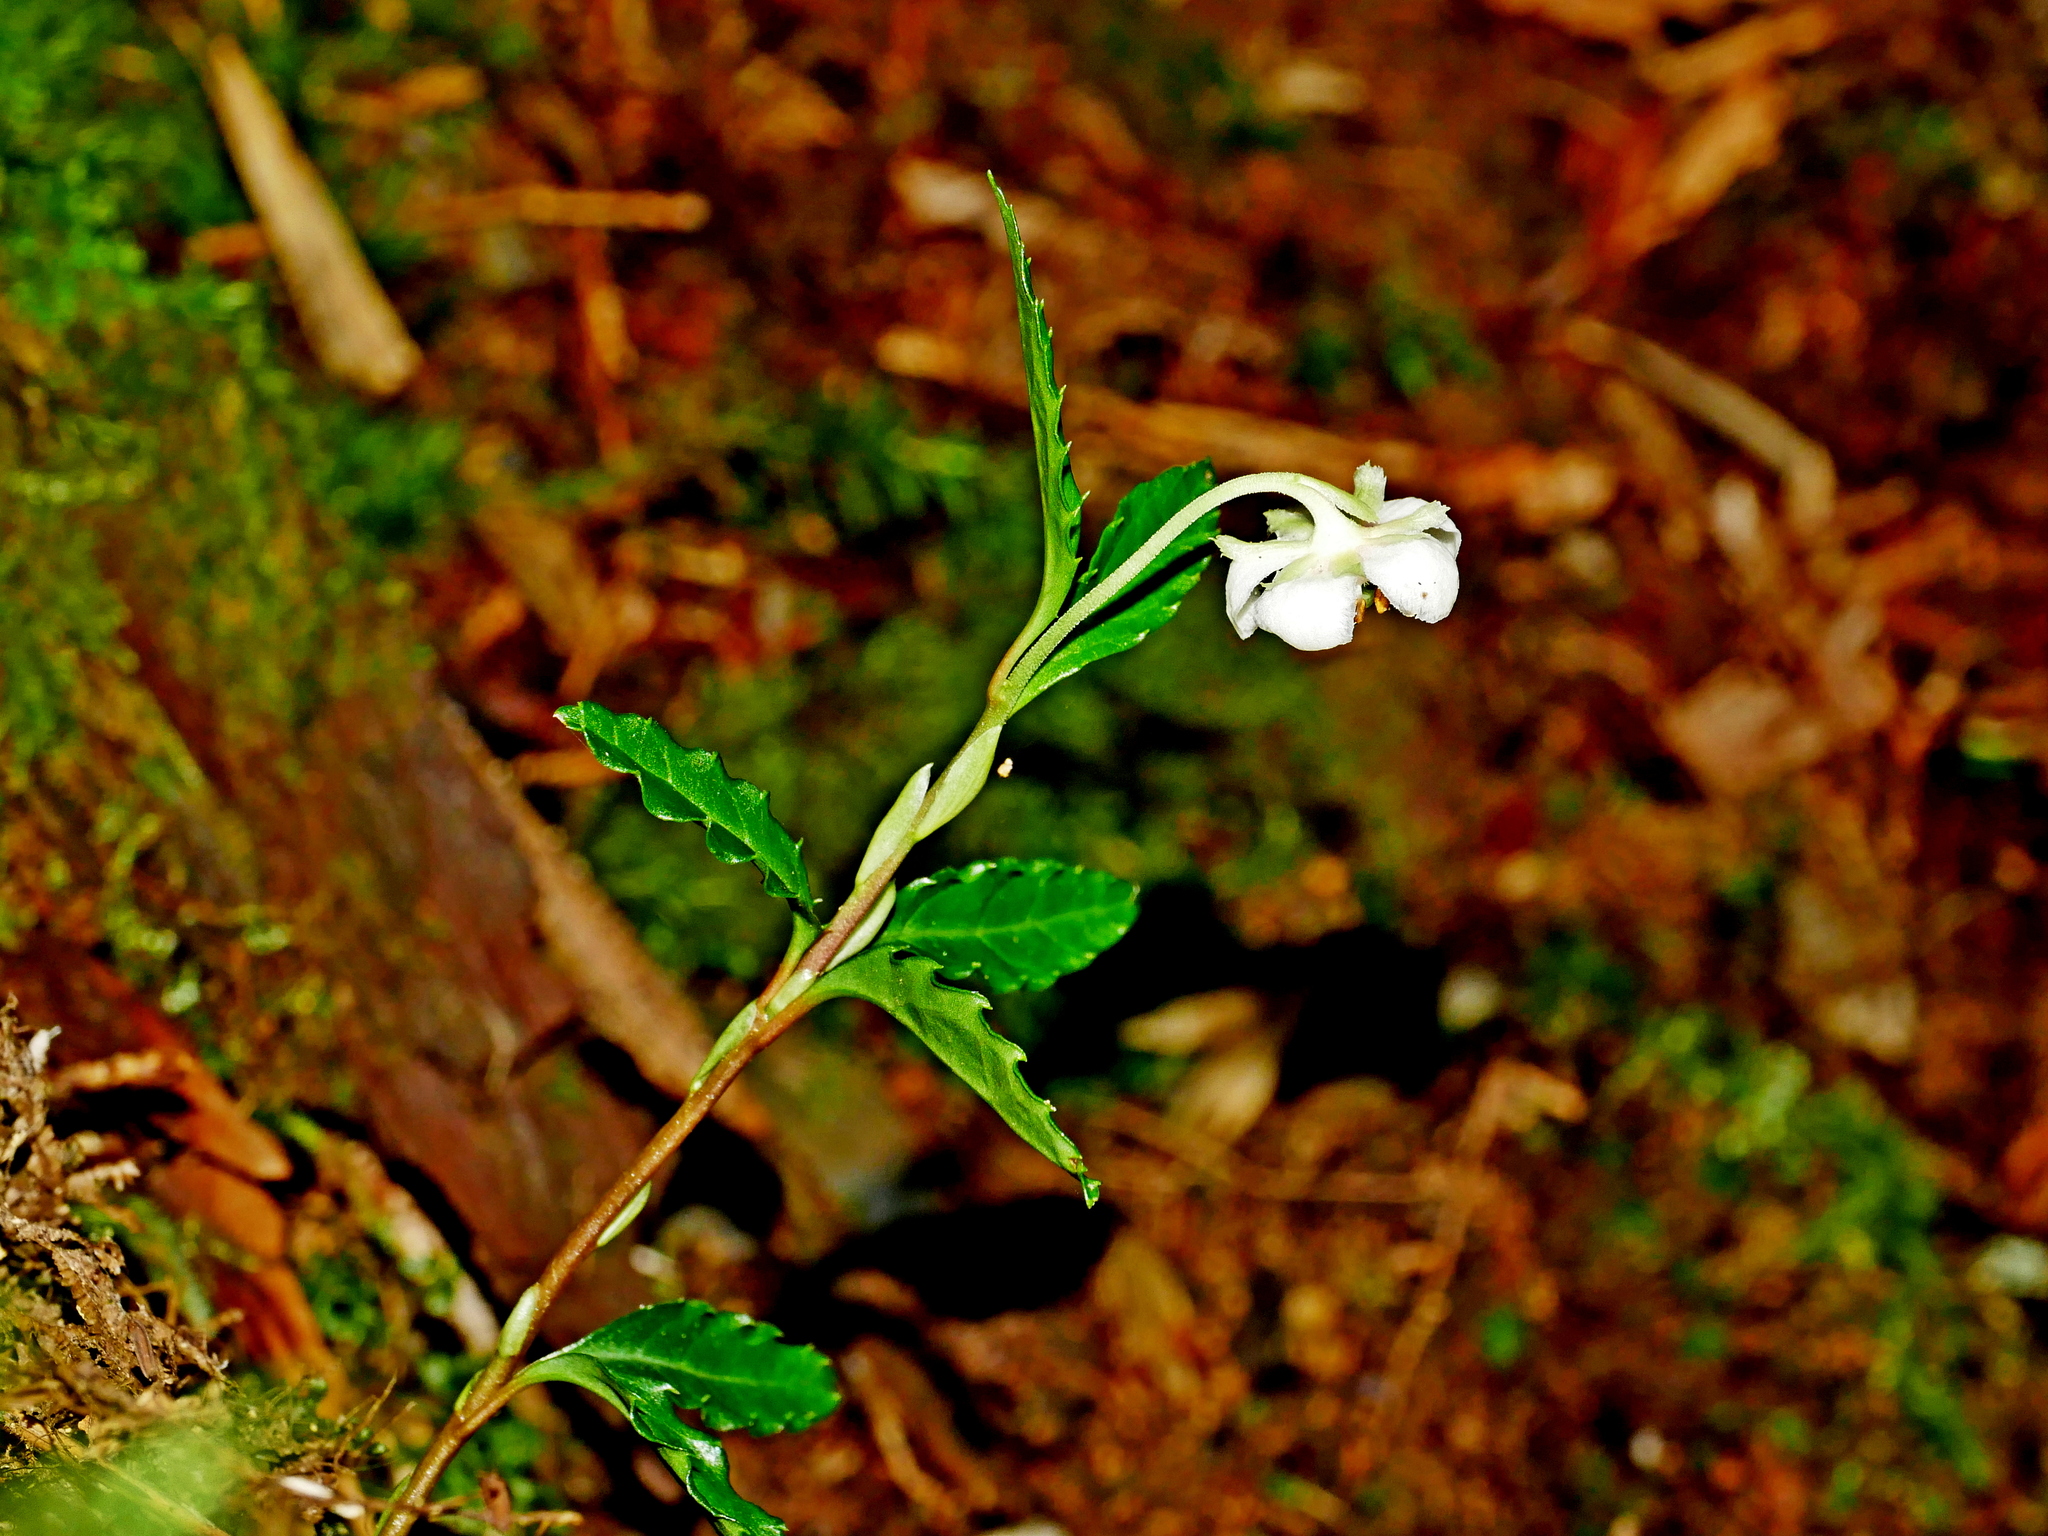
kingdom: Plantae
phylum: Tracheophyta
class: Magnoliopsida
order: Ericales
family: Ericaceae
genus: Chimaphila
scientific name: Chimaphila japonica
